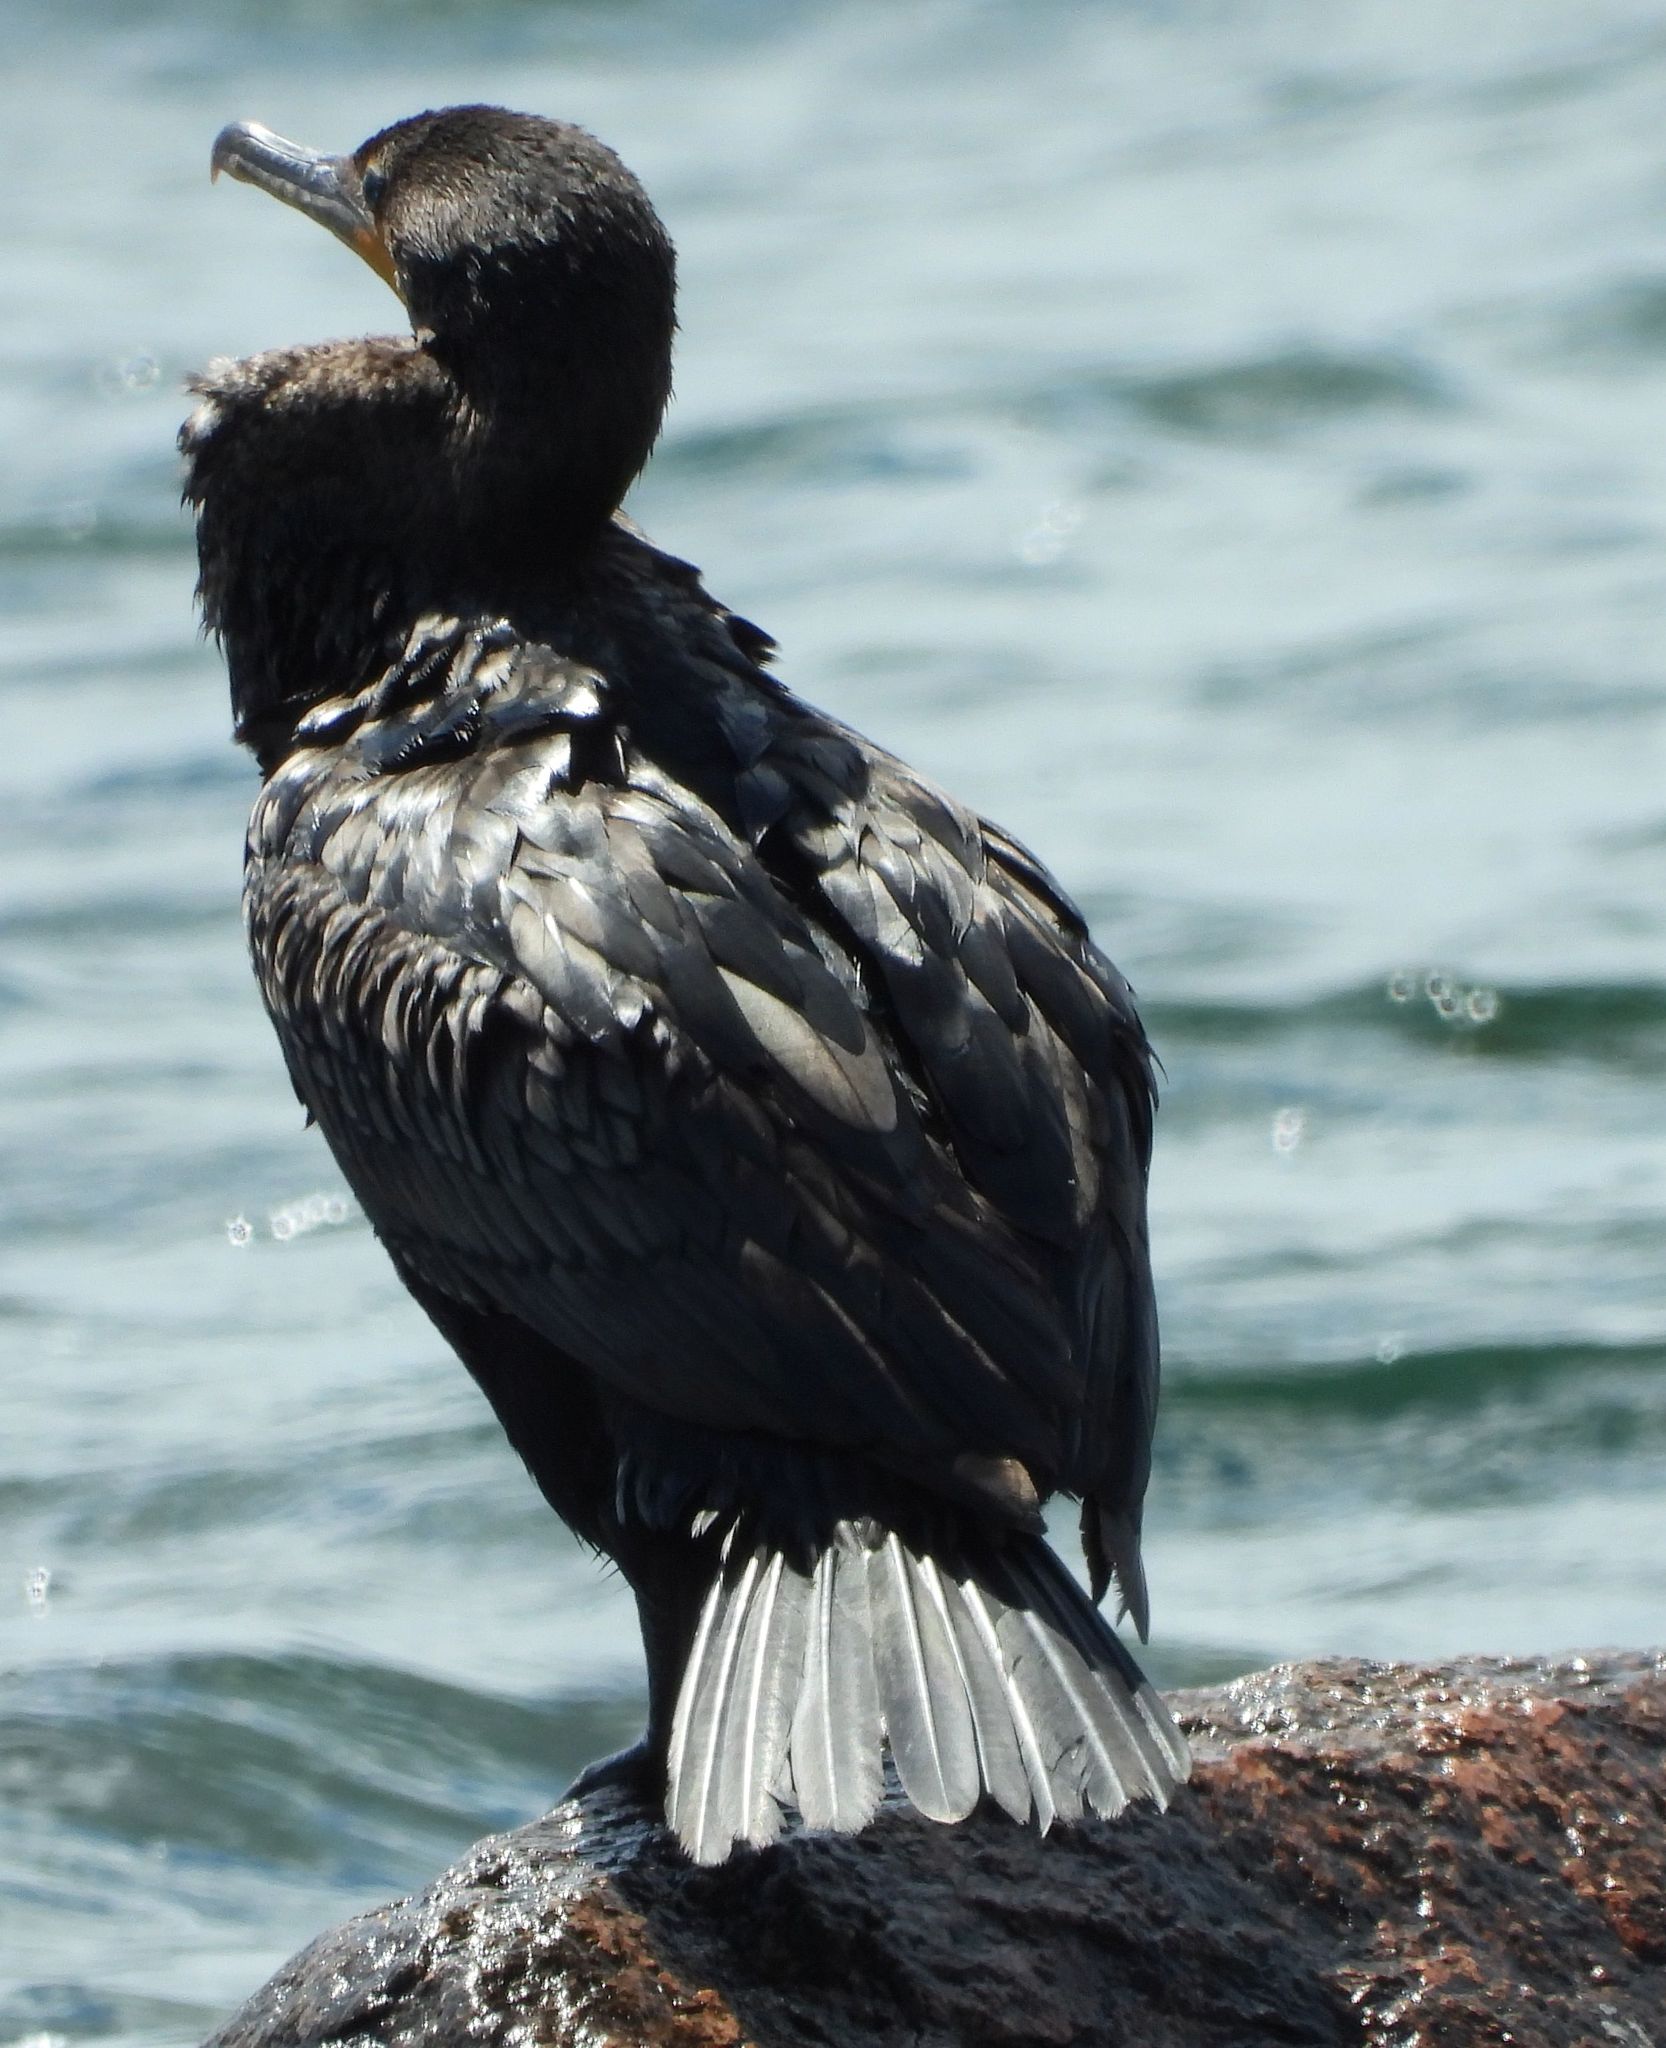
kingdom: Animalia
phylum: Chordata
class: Aves
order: Suliformes
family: Phalacrocoracidae
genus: Phalacrocorax
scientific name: Phalacrocorax auritus
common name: Double-crested cormorant
